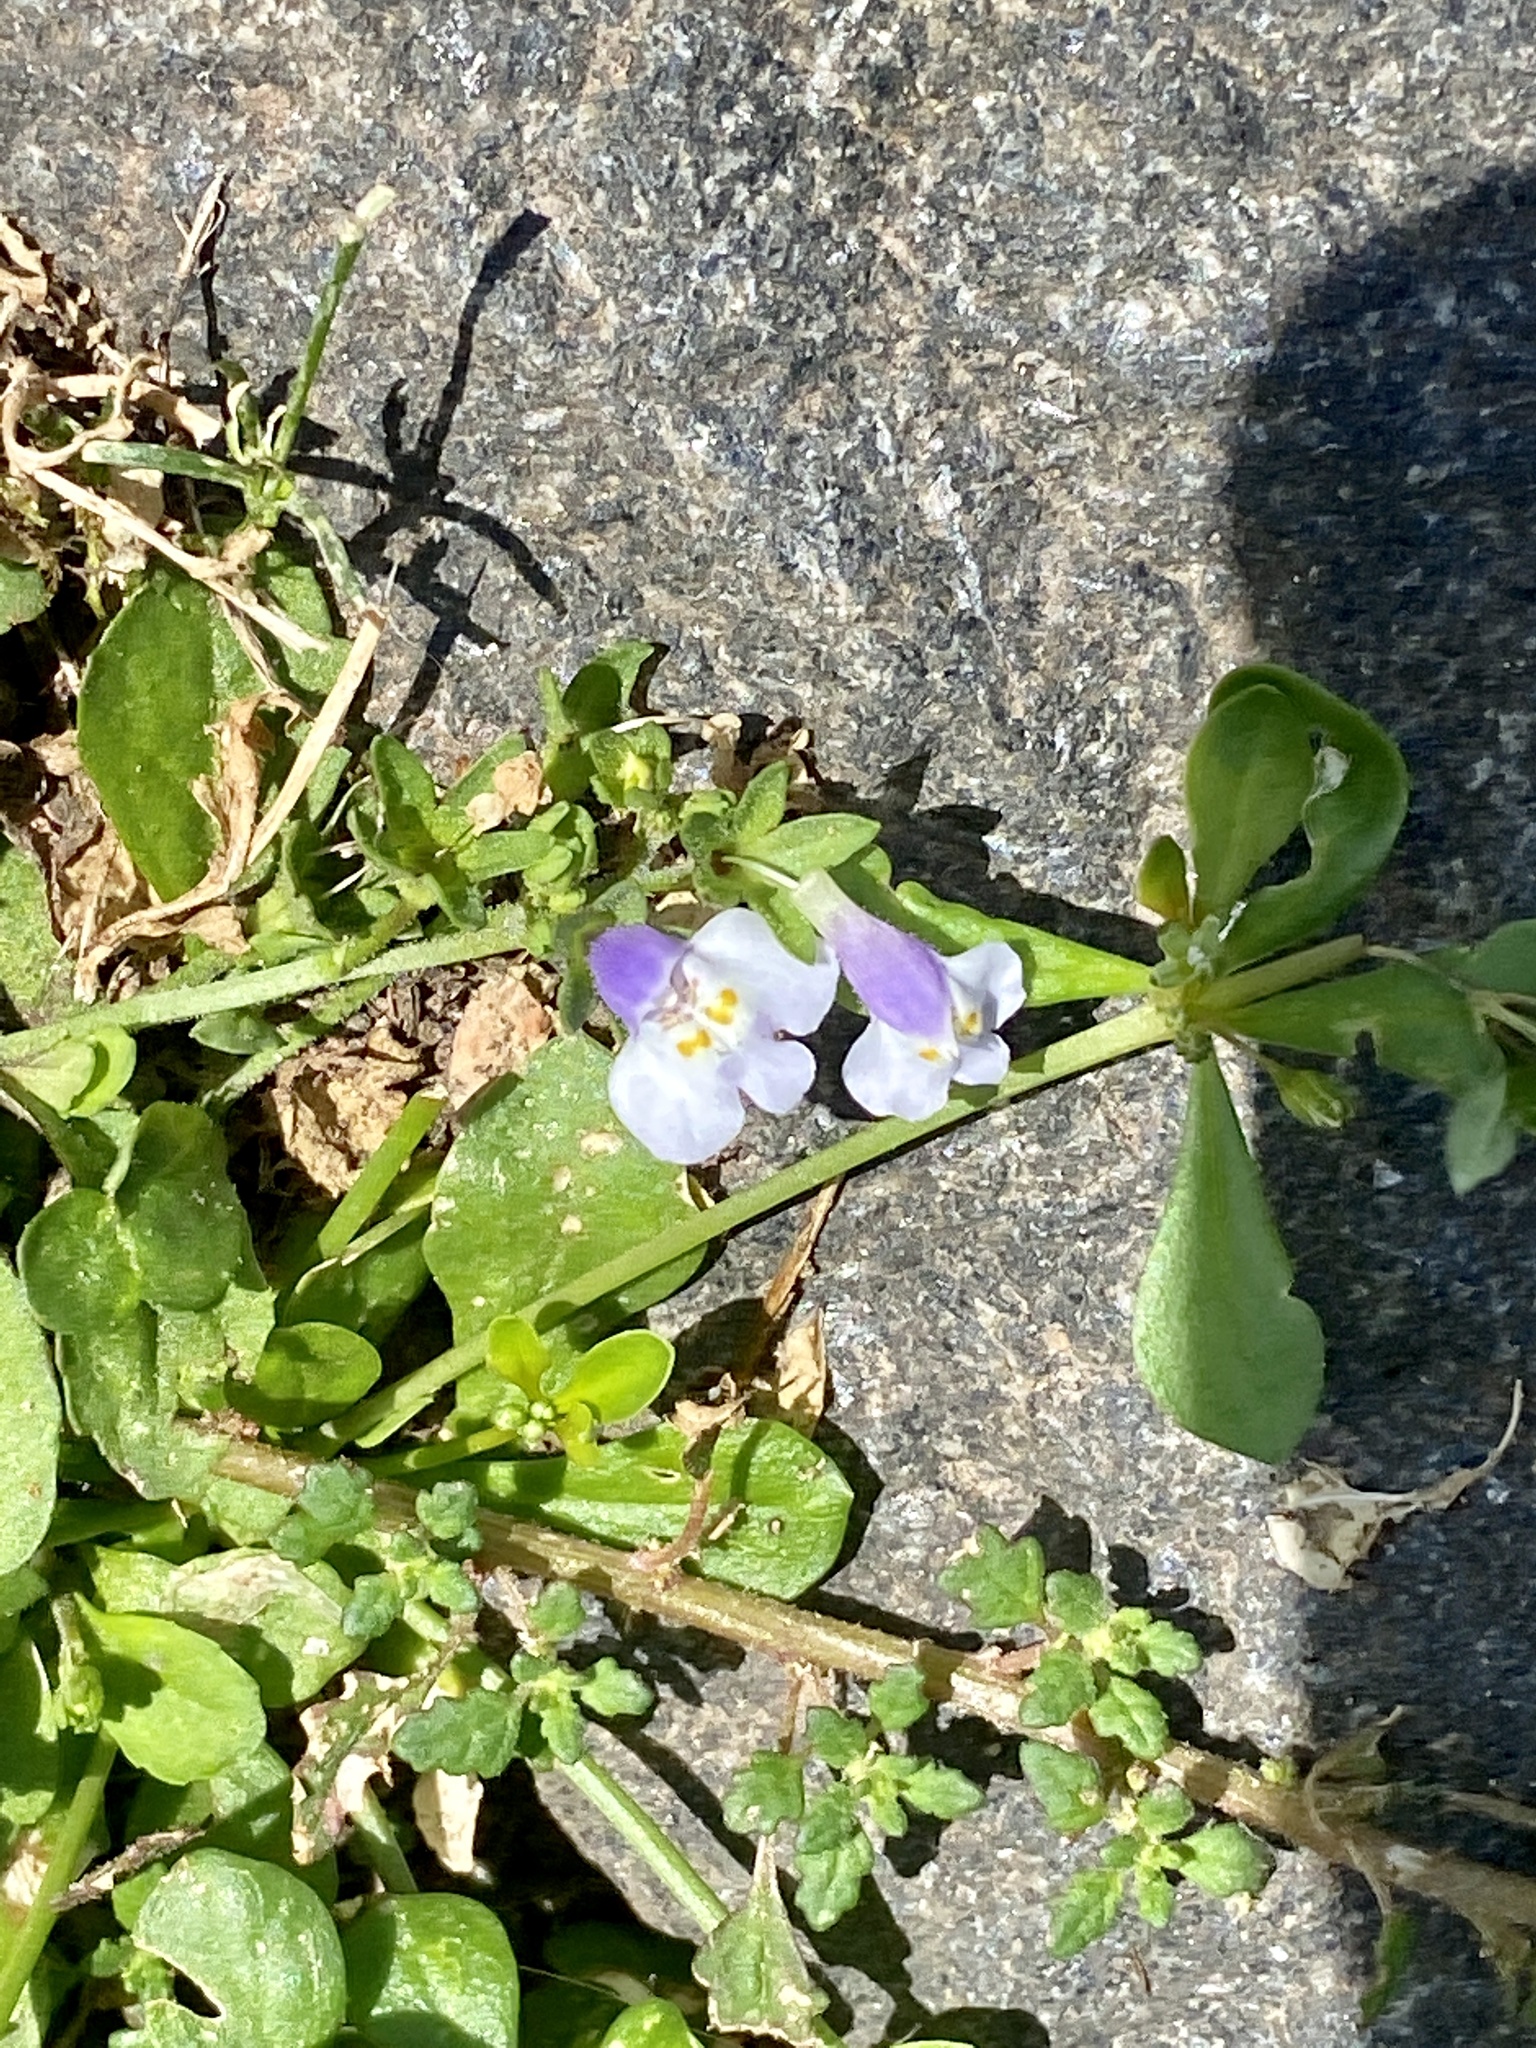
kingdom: Plantae
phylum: Tracheophyta
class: Magnoliopsida
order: Lamiales
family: Mazaceae
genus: Mazus
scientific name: Mazus pumilus
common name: Japanese mazus
